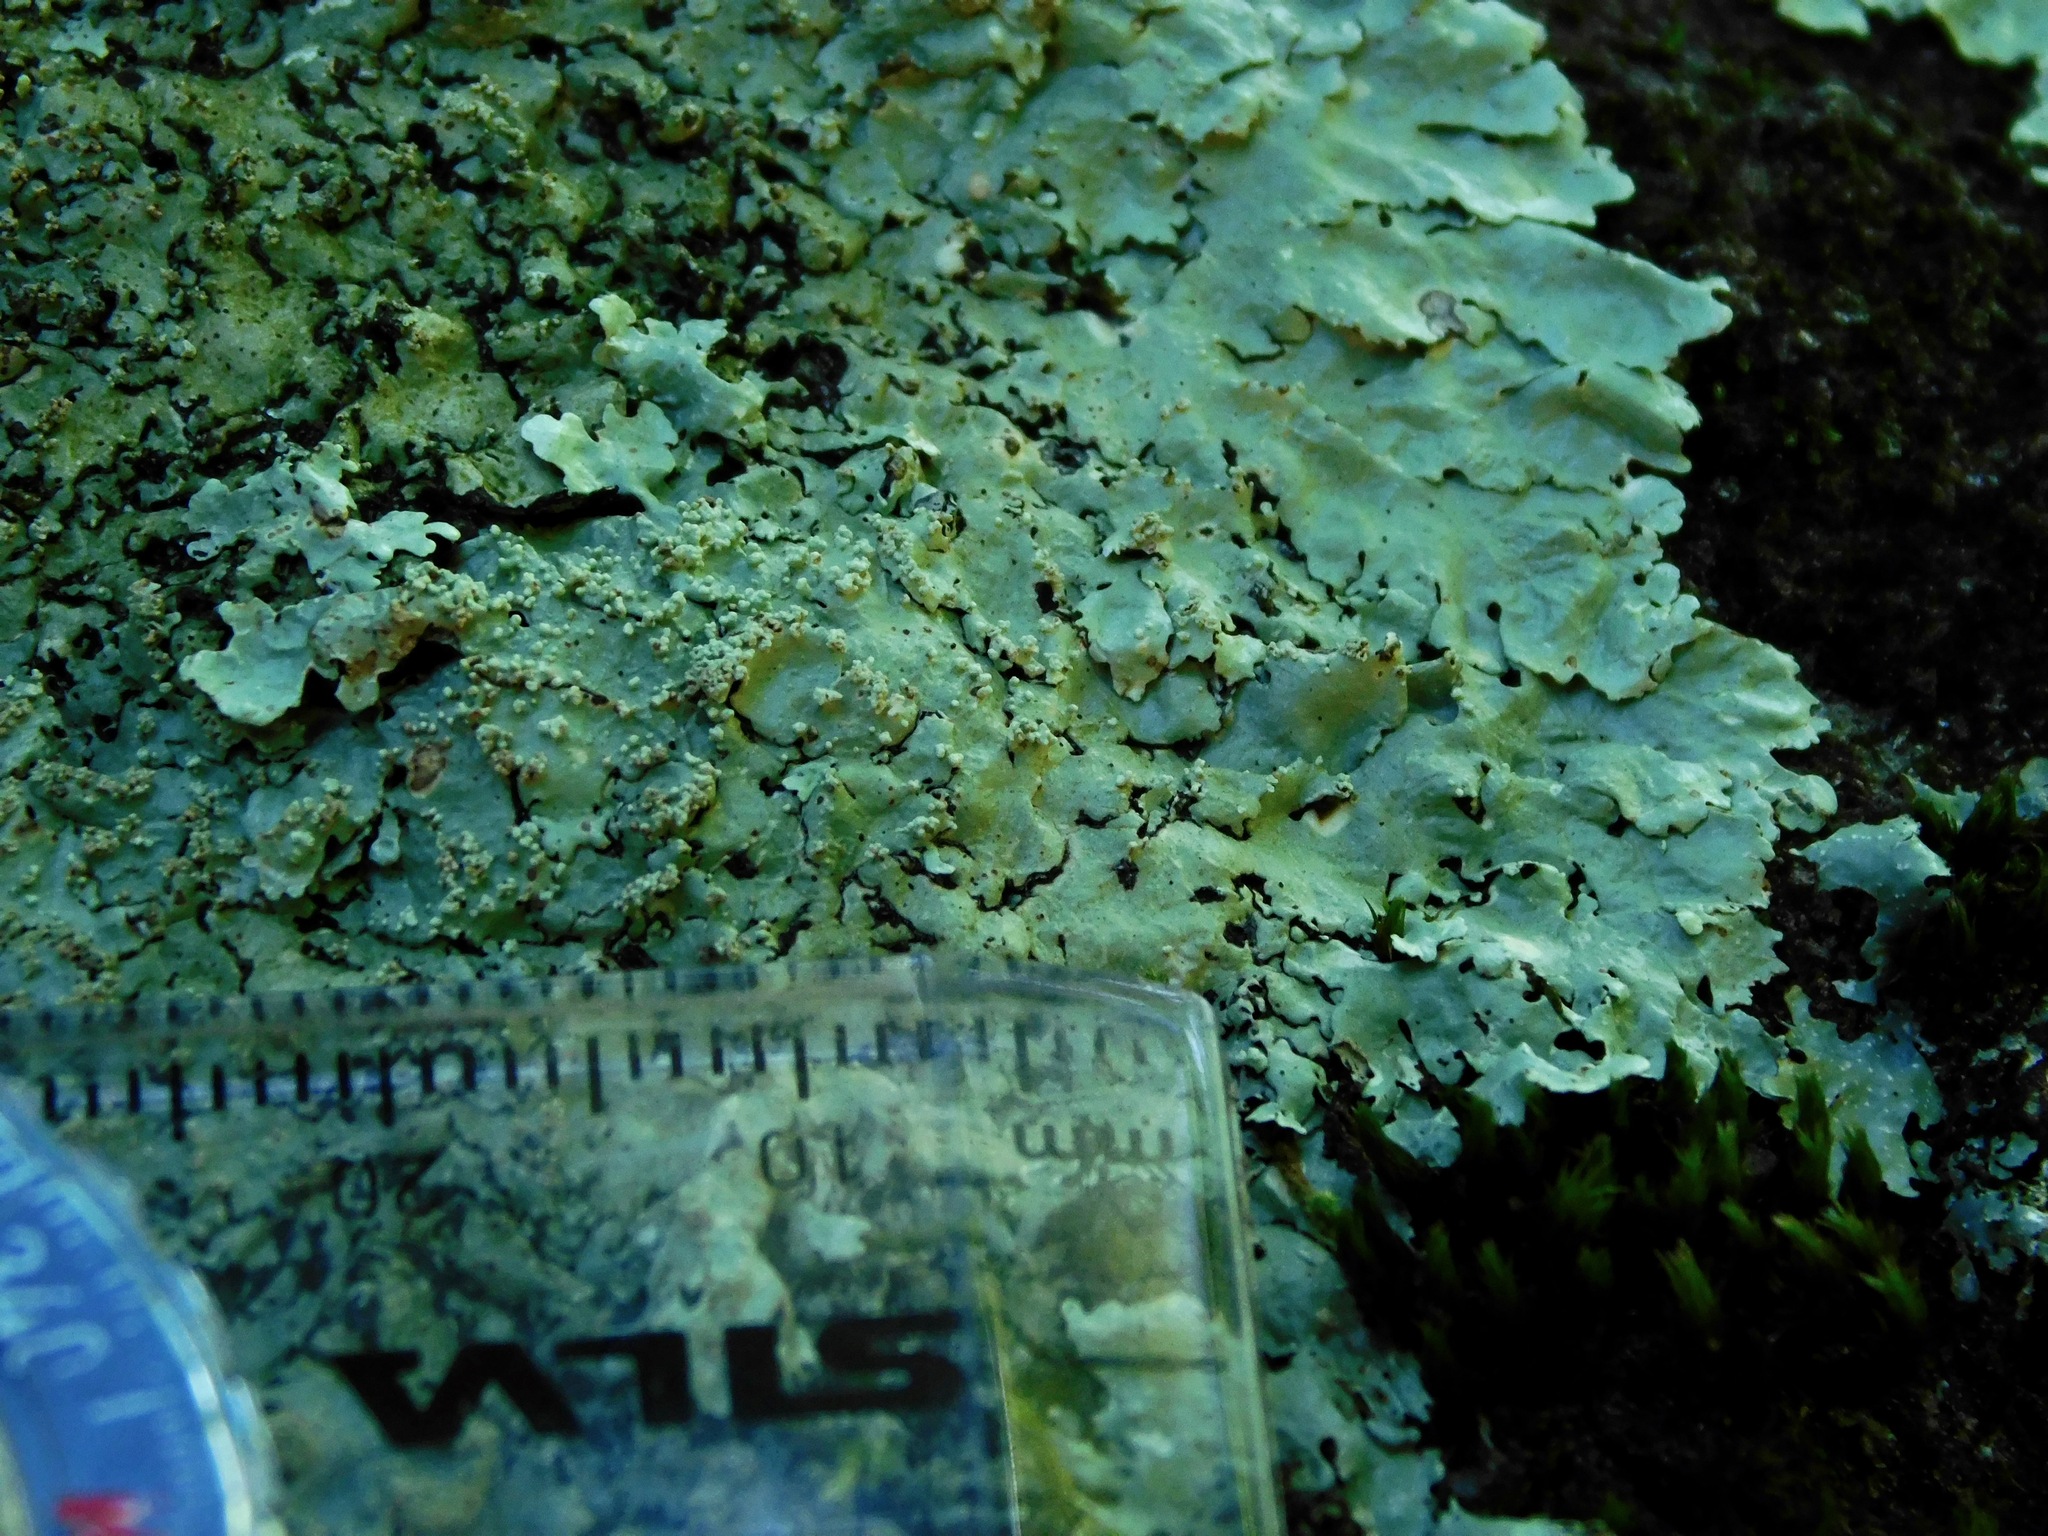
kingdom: Fungi
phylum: Ascomycota
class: Lecanoromycetes
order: Lecanorales
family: Parmeliaceae
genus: Flavoparmelia
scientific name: Flavoparmelia baltimorensis
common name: Rock greenshield
